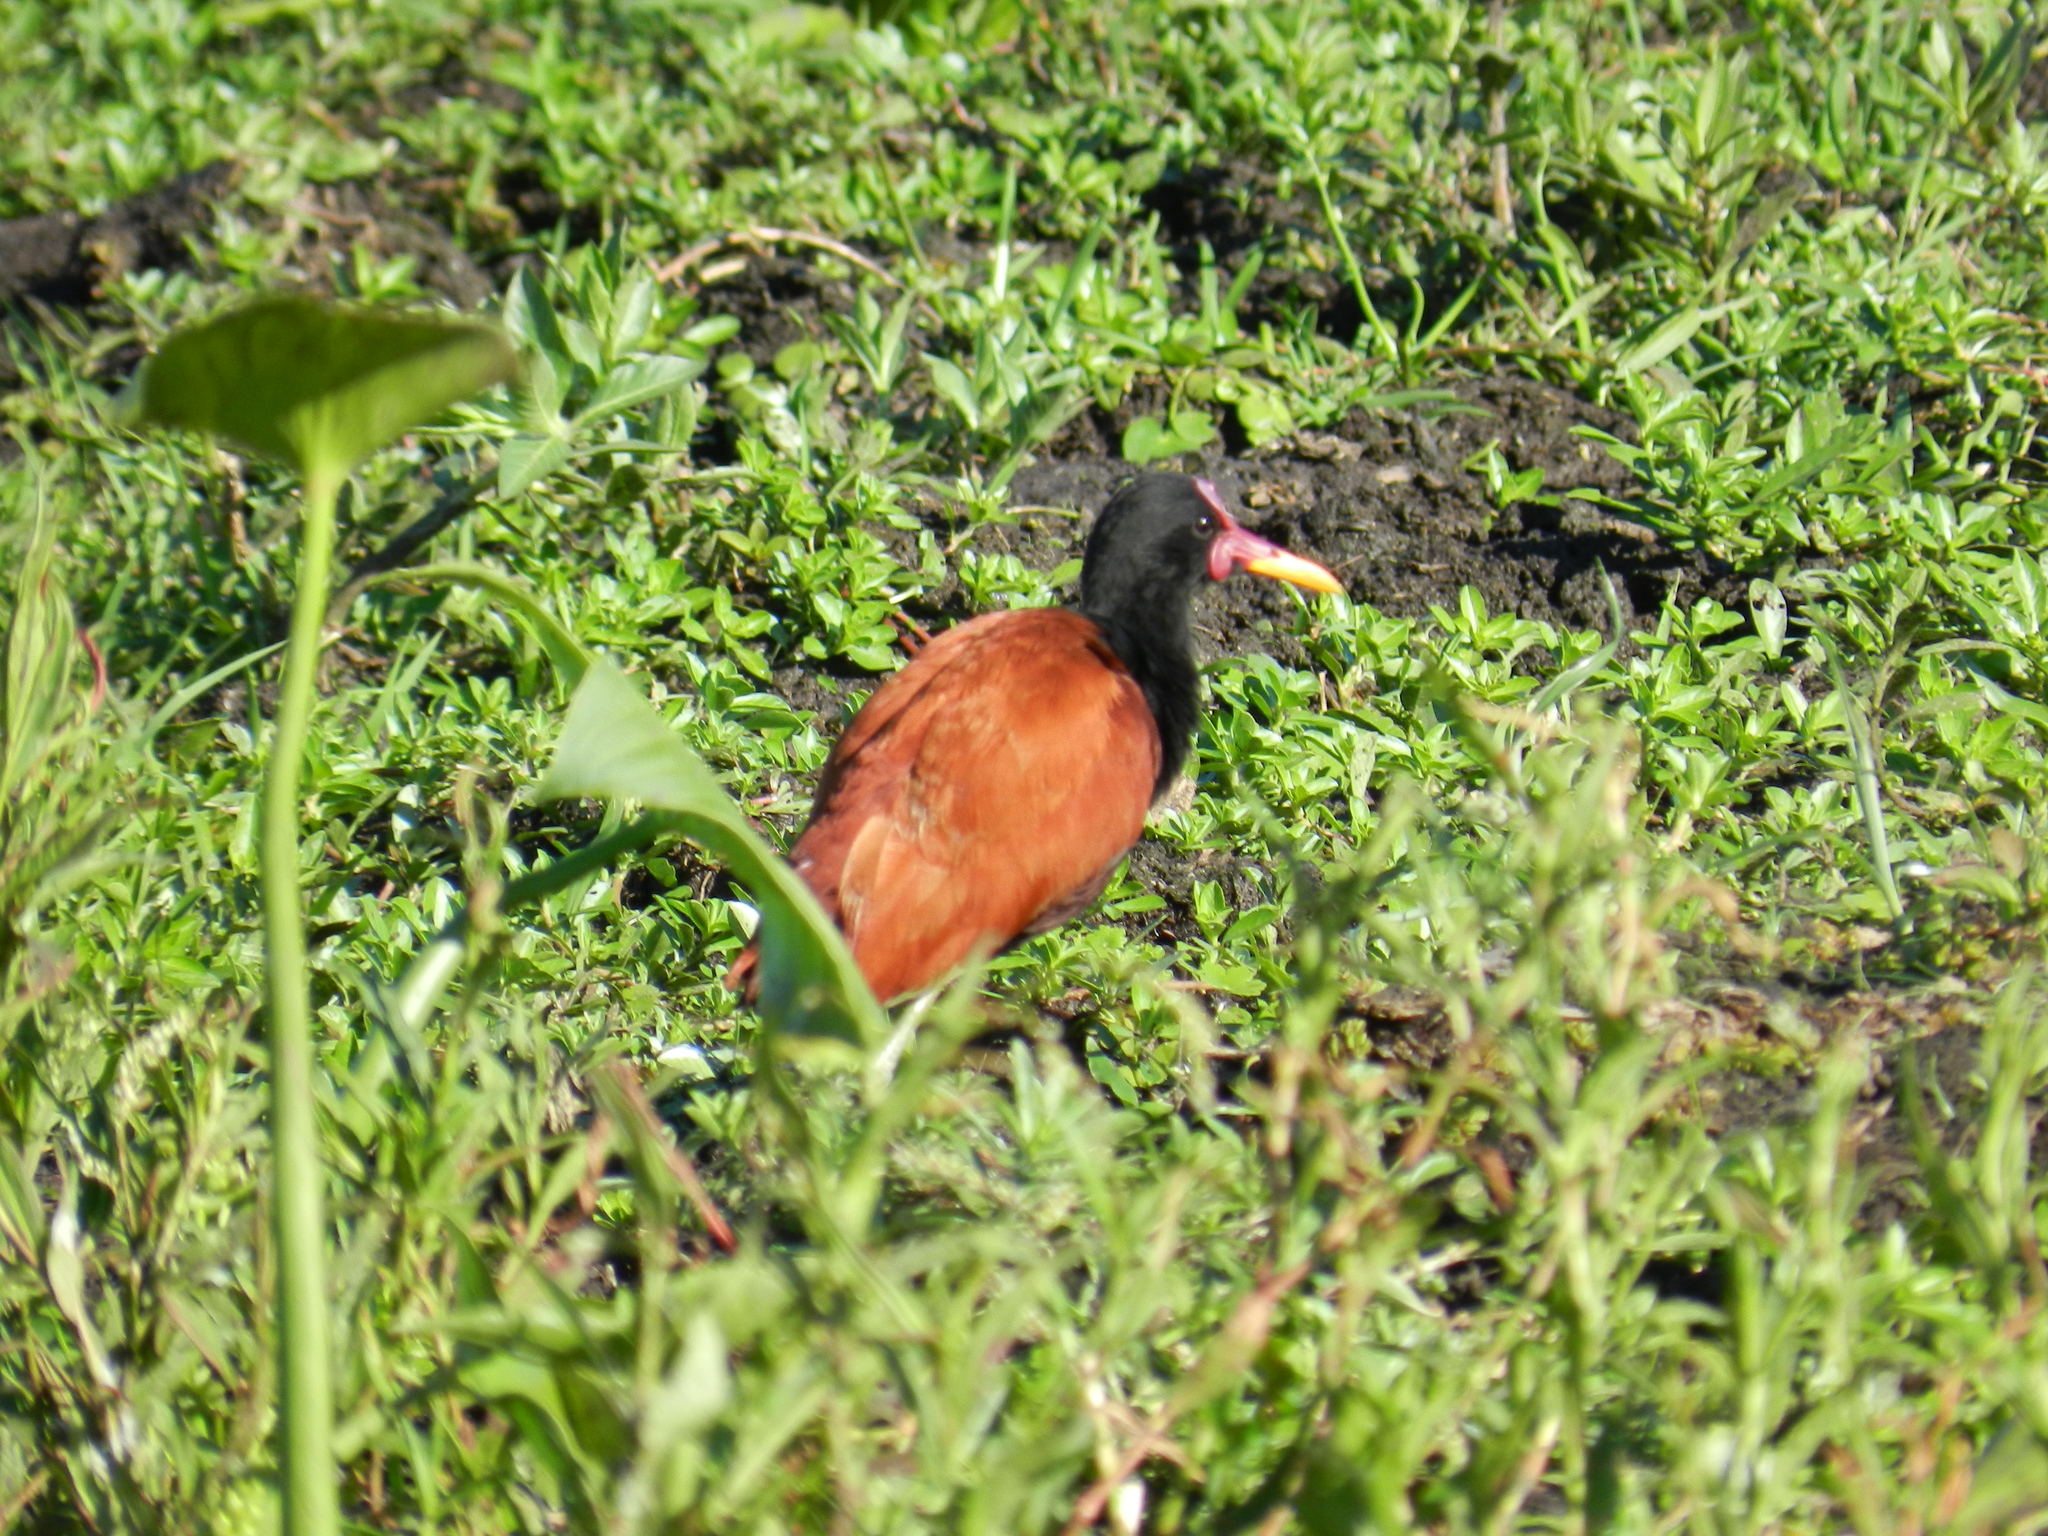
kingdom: Animalia
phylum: Chordata
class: Aves
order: Charadriiformes
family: Jacanidae
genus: Jacana
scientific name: Jacana jacana
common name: Wattled jacana
